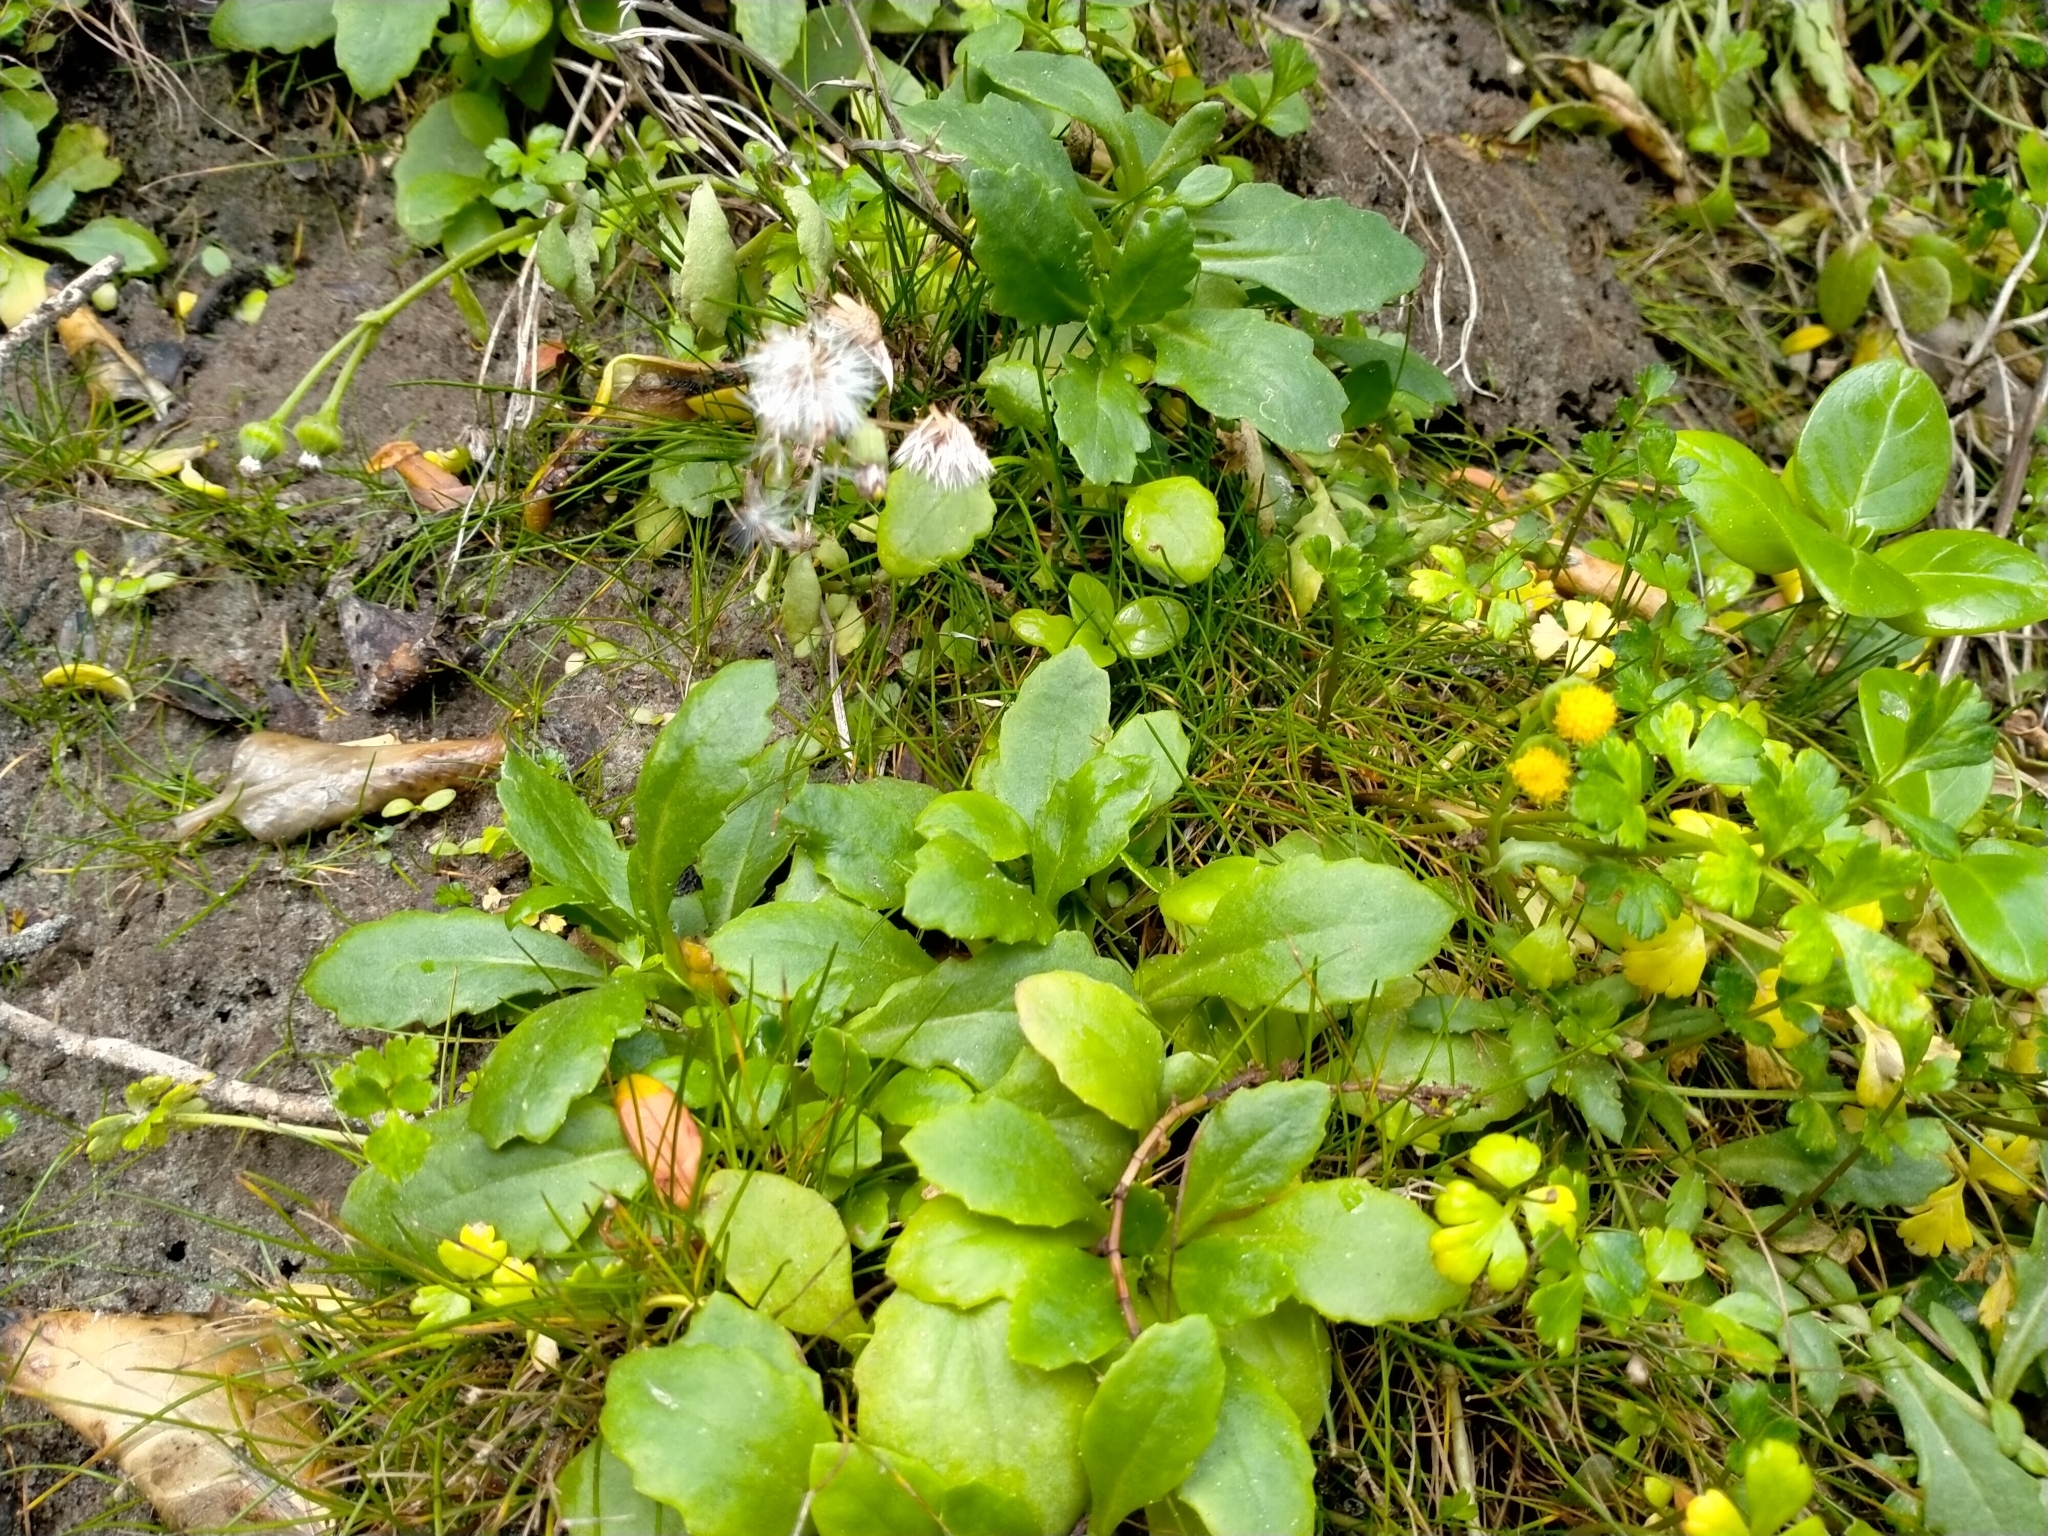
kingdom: Plantae
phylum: Tracheophyta
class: Magnoliopsida
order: Asterales
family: Asteraceae
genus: Senecio
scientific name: Senecio matatini
